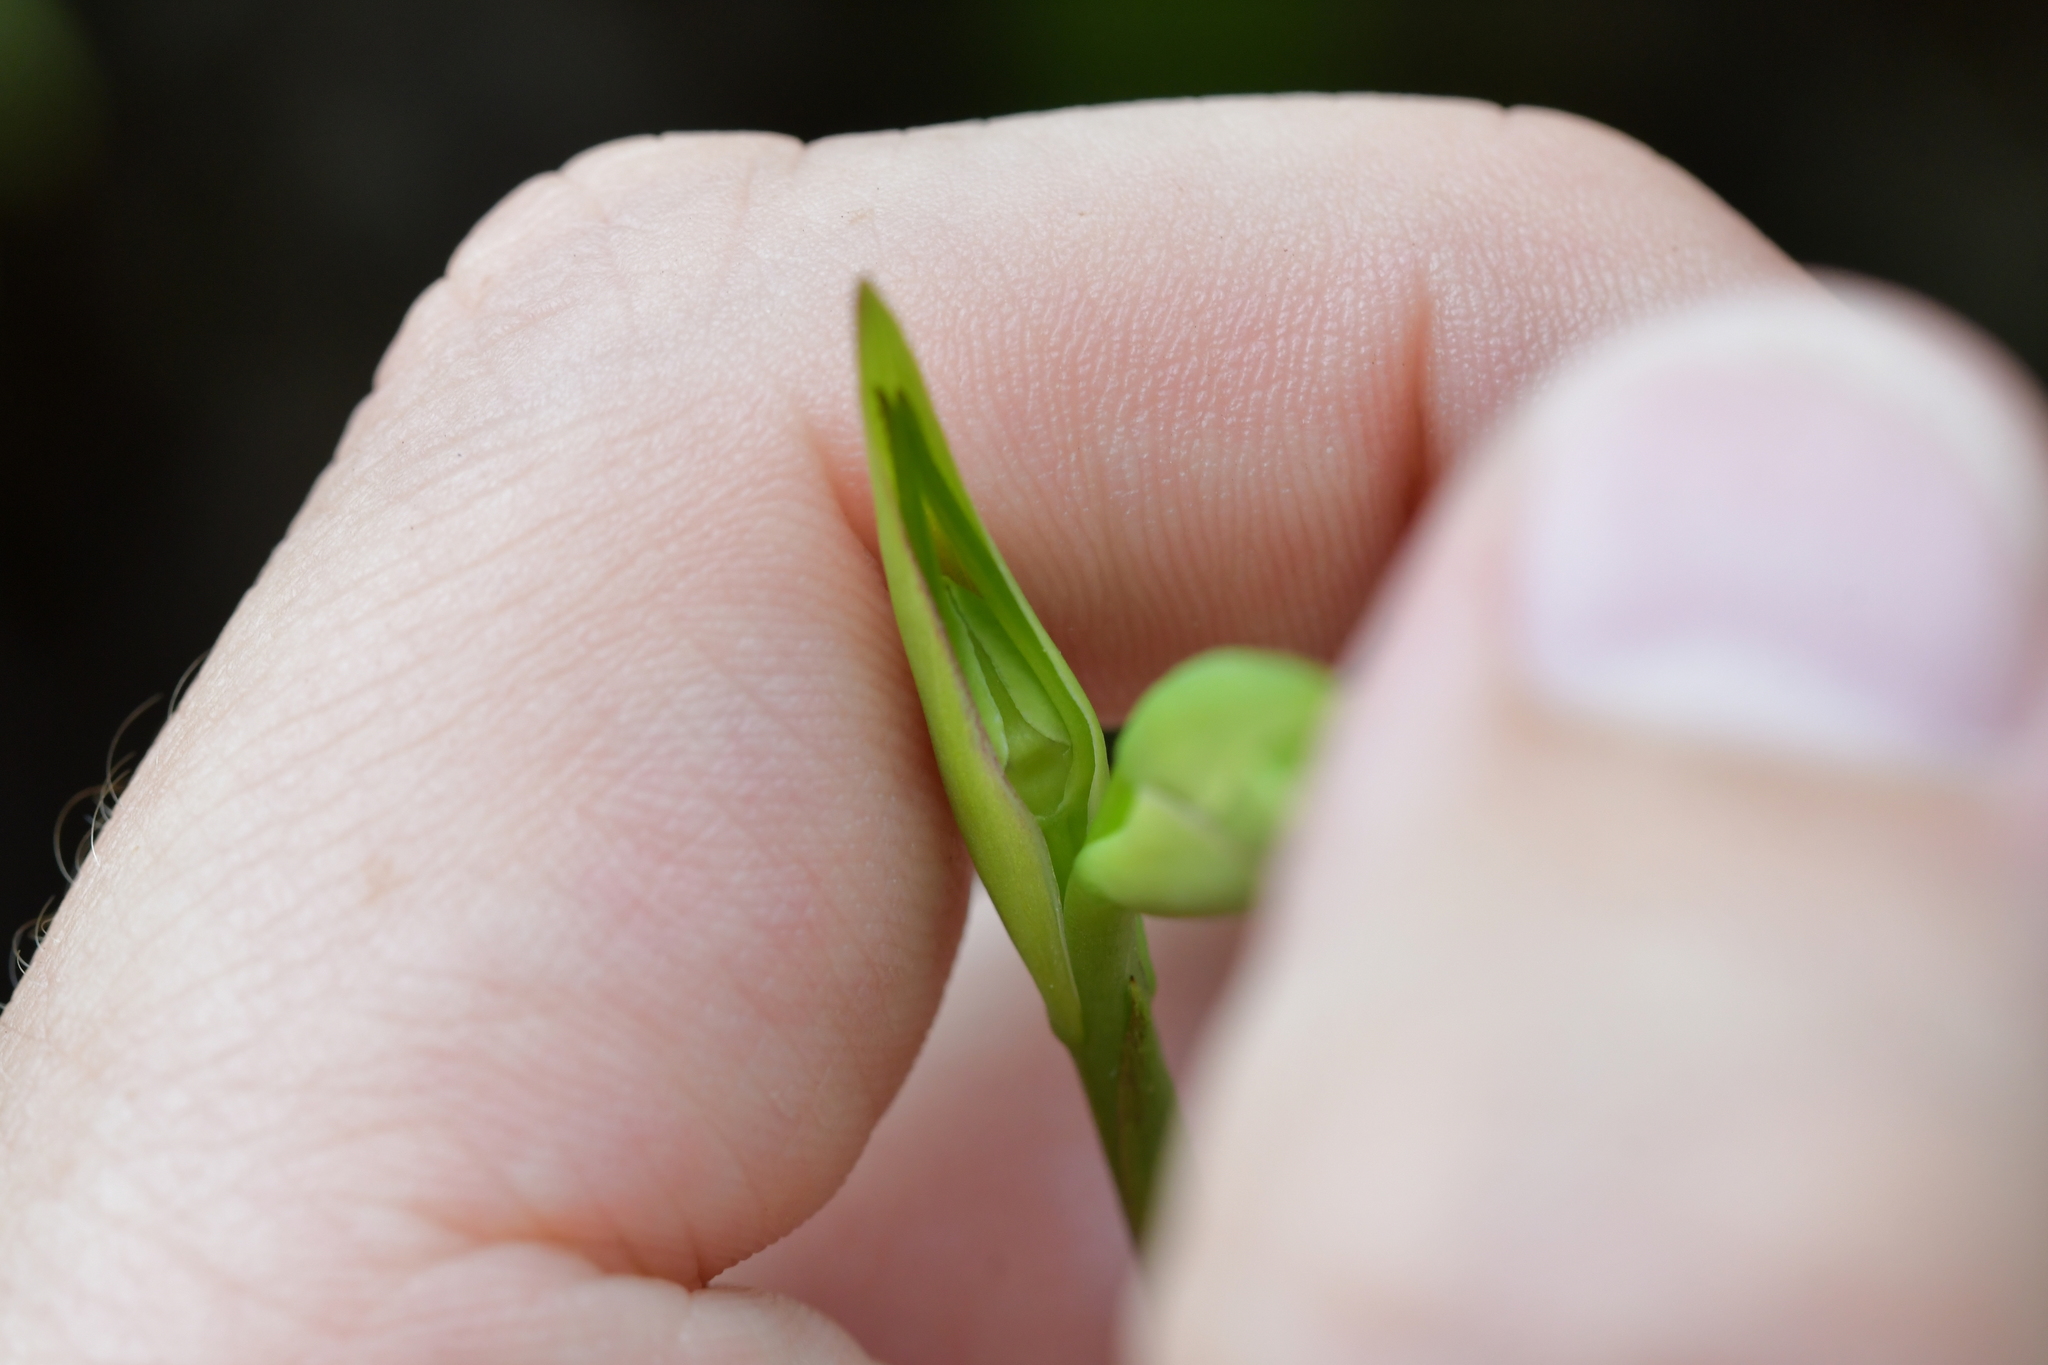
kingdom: Plantae
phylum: Tracheophyta
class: Liliopsida
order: Asparagales
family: Orchidaceae
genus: Orthoceras
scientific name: Orthoceras novae-zeelandiae
